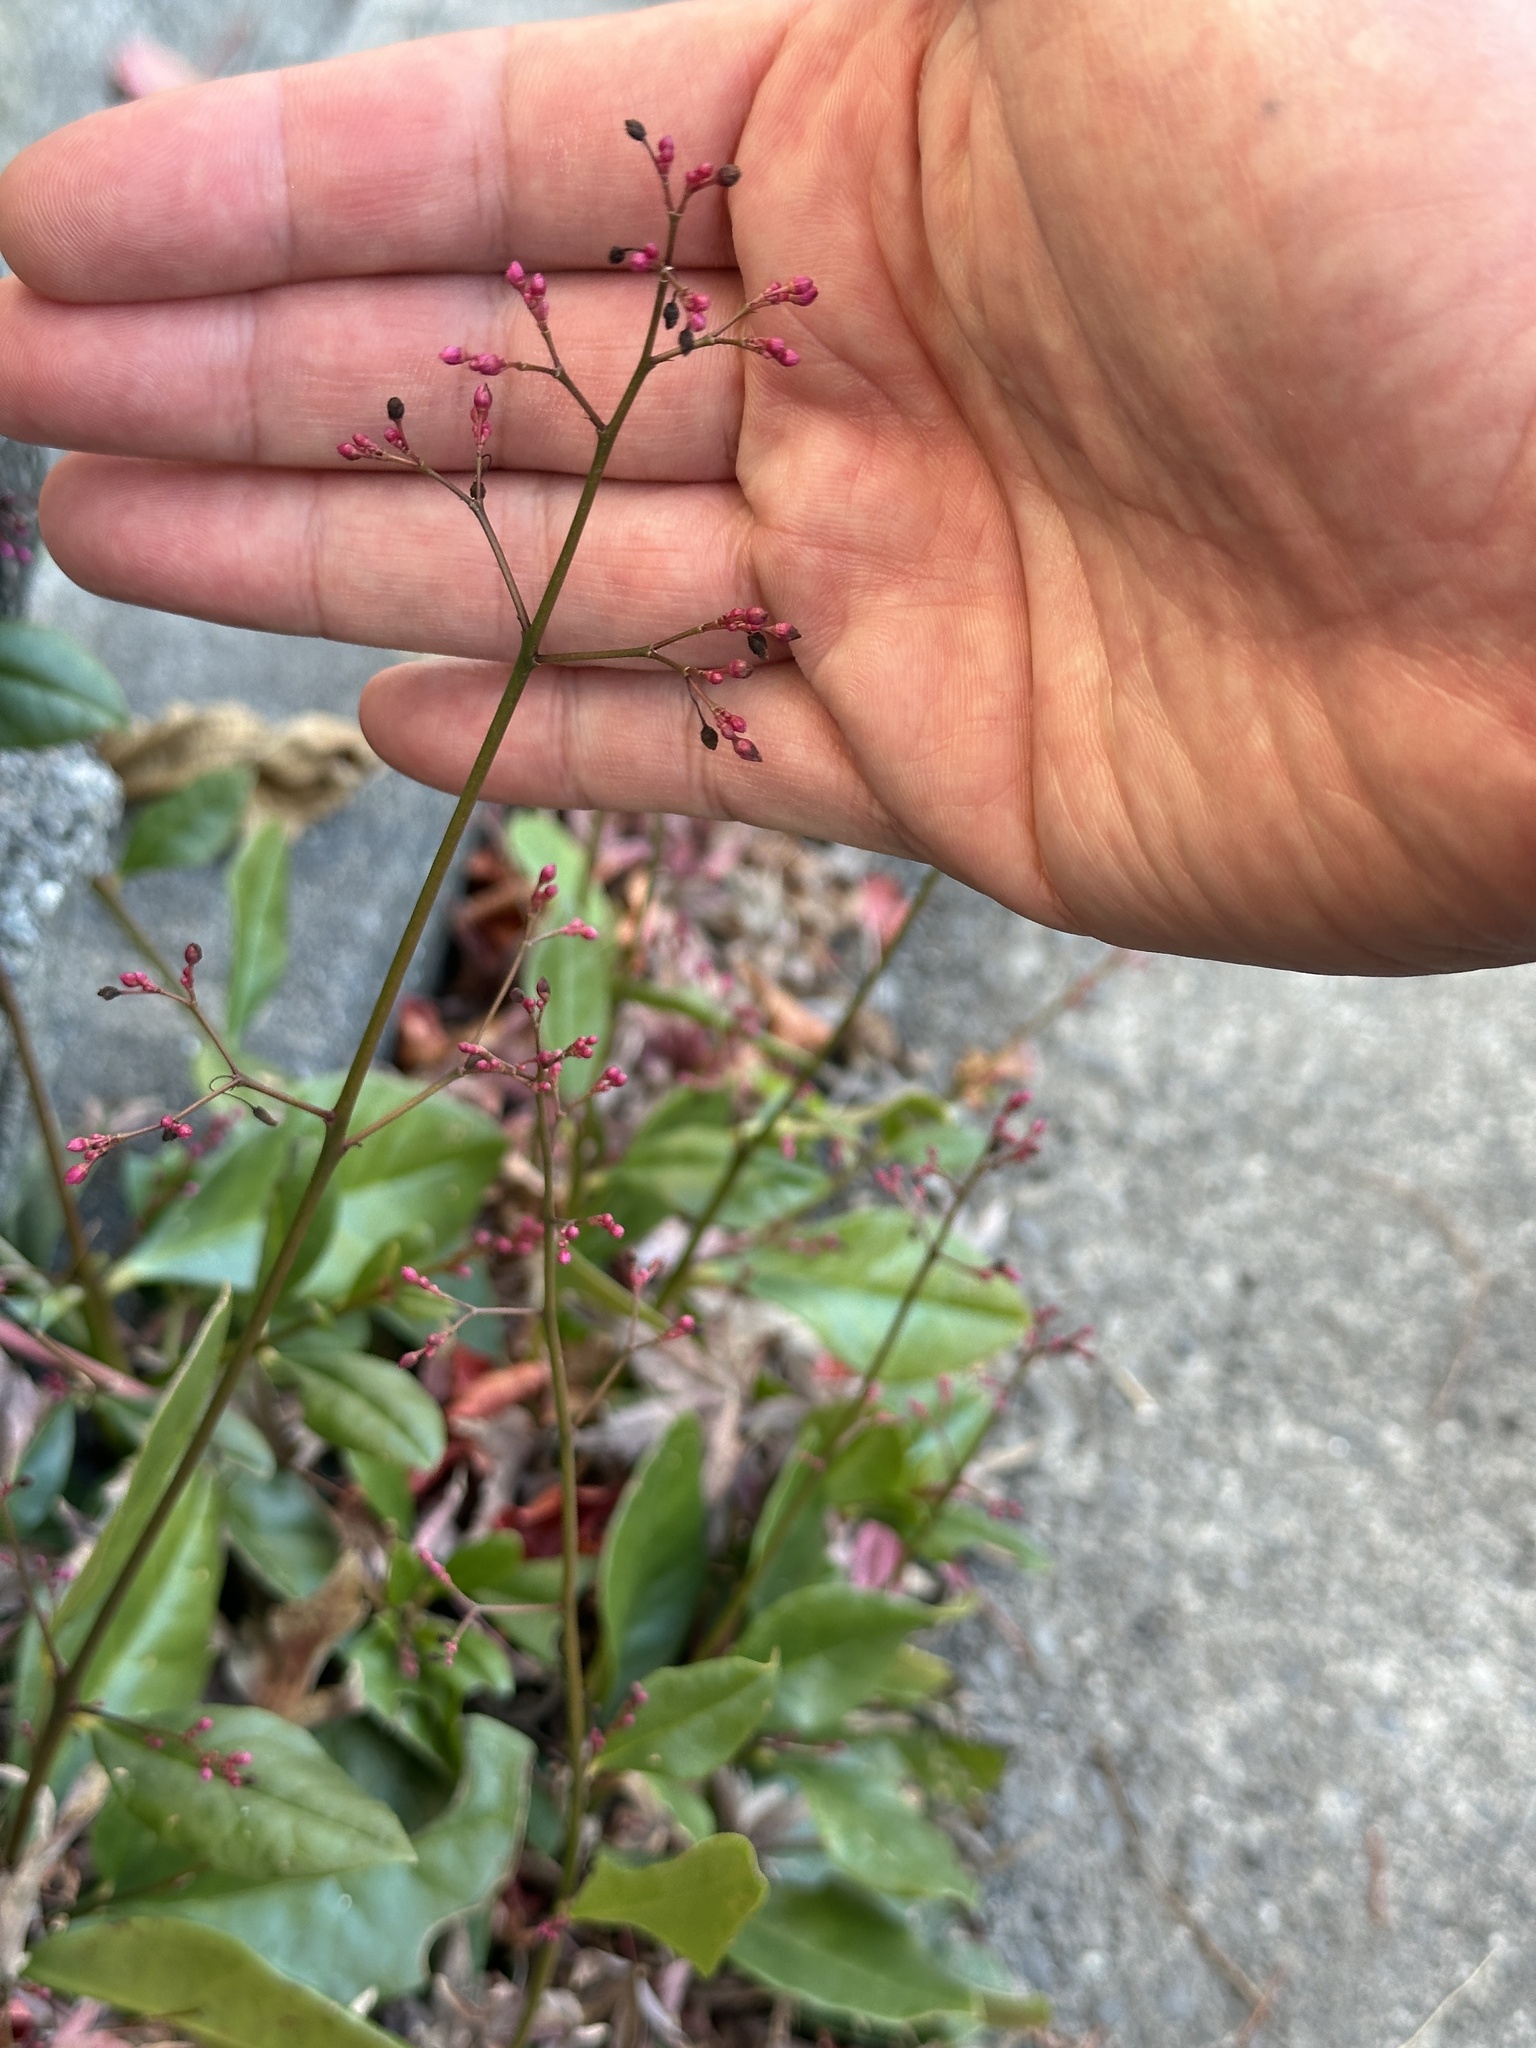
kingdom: Plantae
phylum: Tracheophyta
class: Magnoliopsida
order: Caryophyllales
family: Talinaceae
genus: Talinum
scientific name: Talinum paniculatum
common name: Jewels of opar
